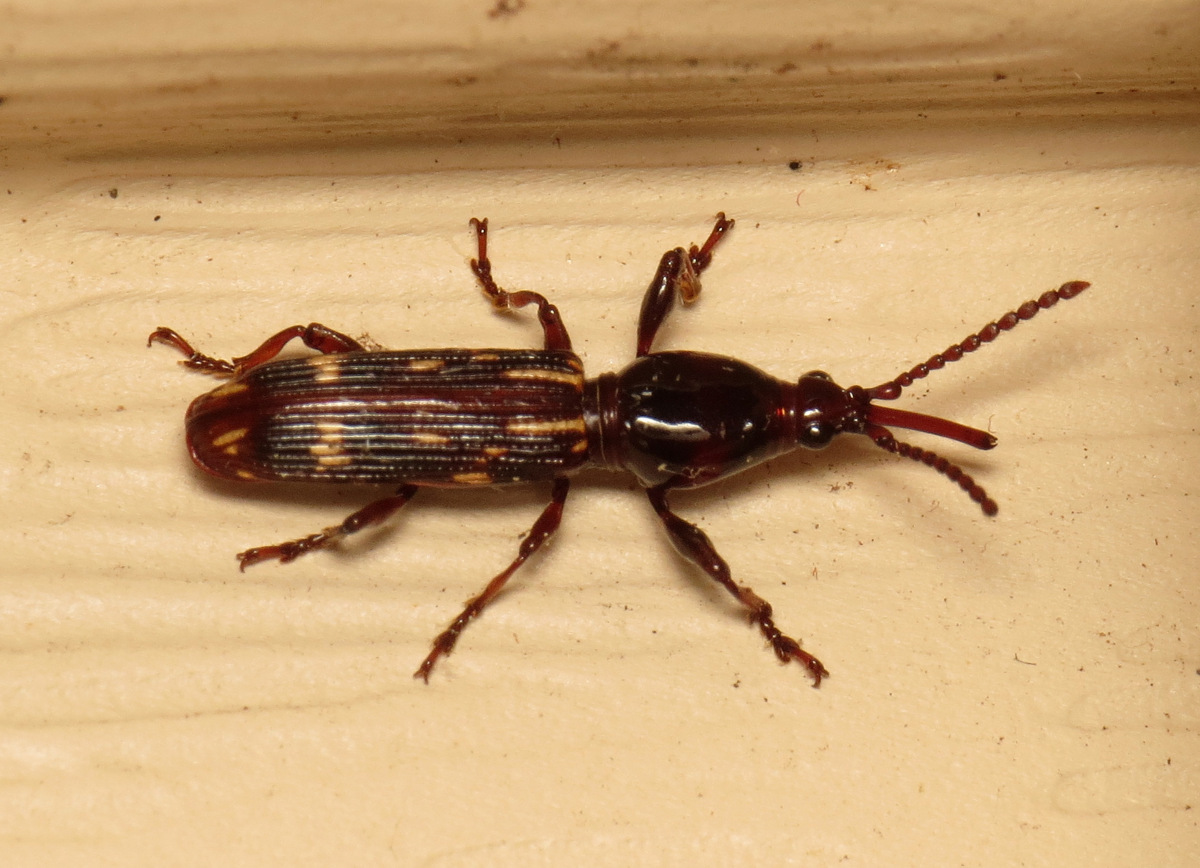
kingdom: Animalia
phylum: Arthropoda
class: Insecta
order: Coleoptera
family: Brentidae
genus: Arrenodes
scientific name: Arrenodes minutus
